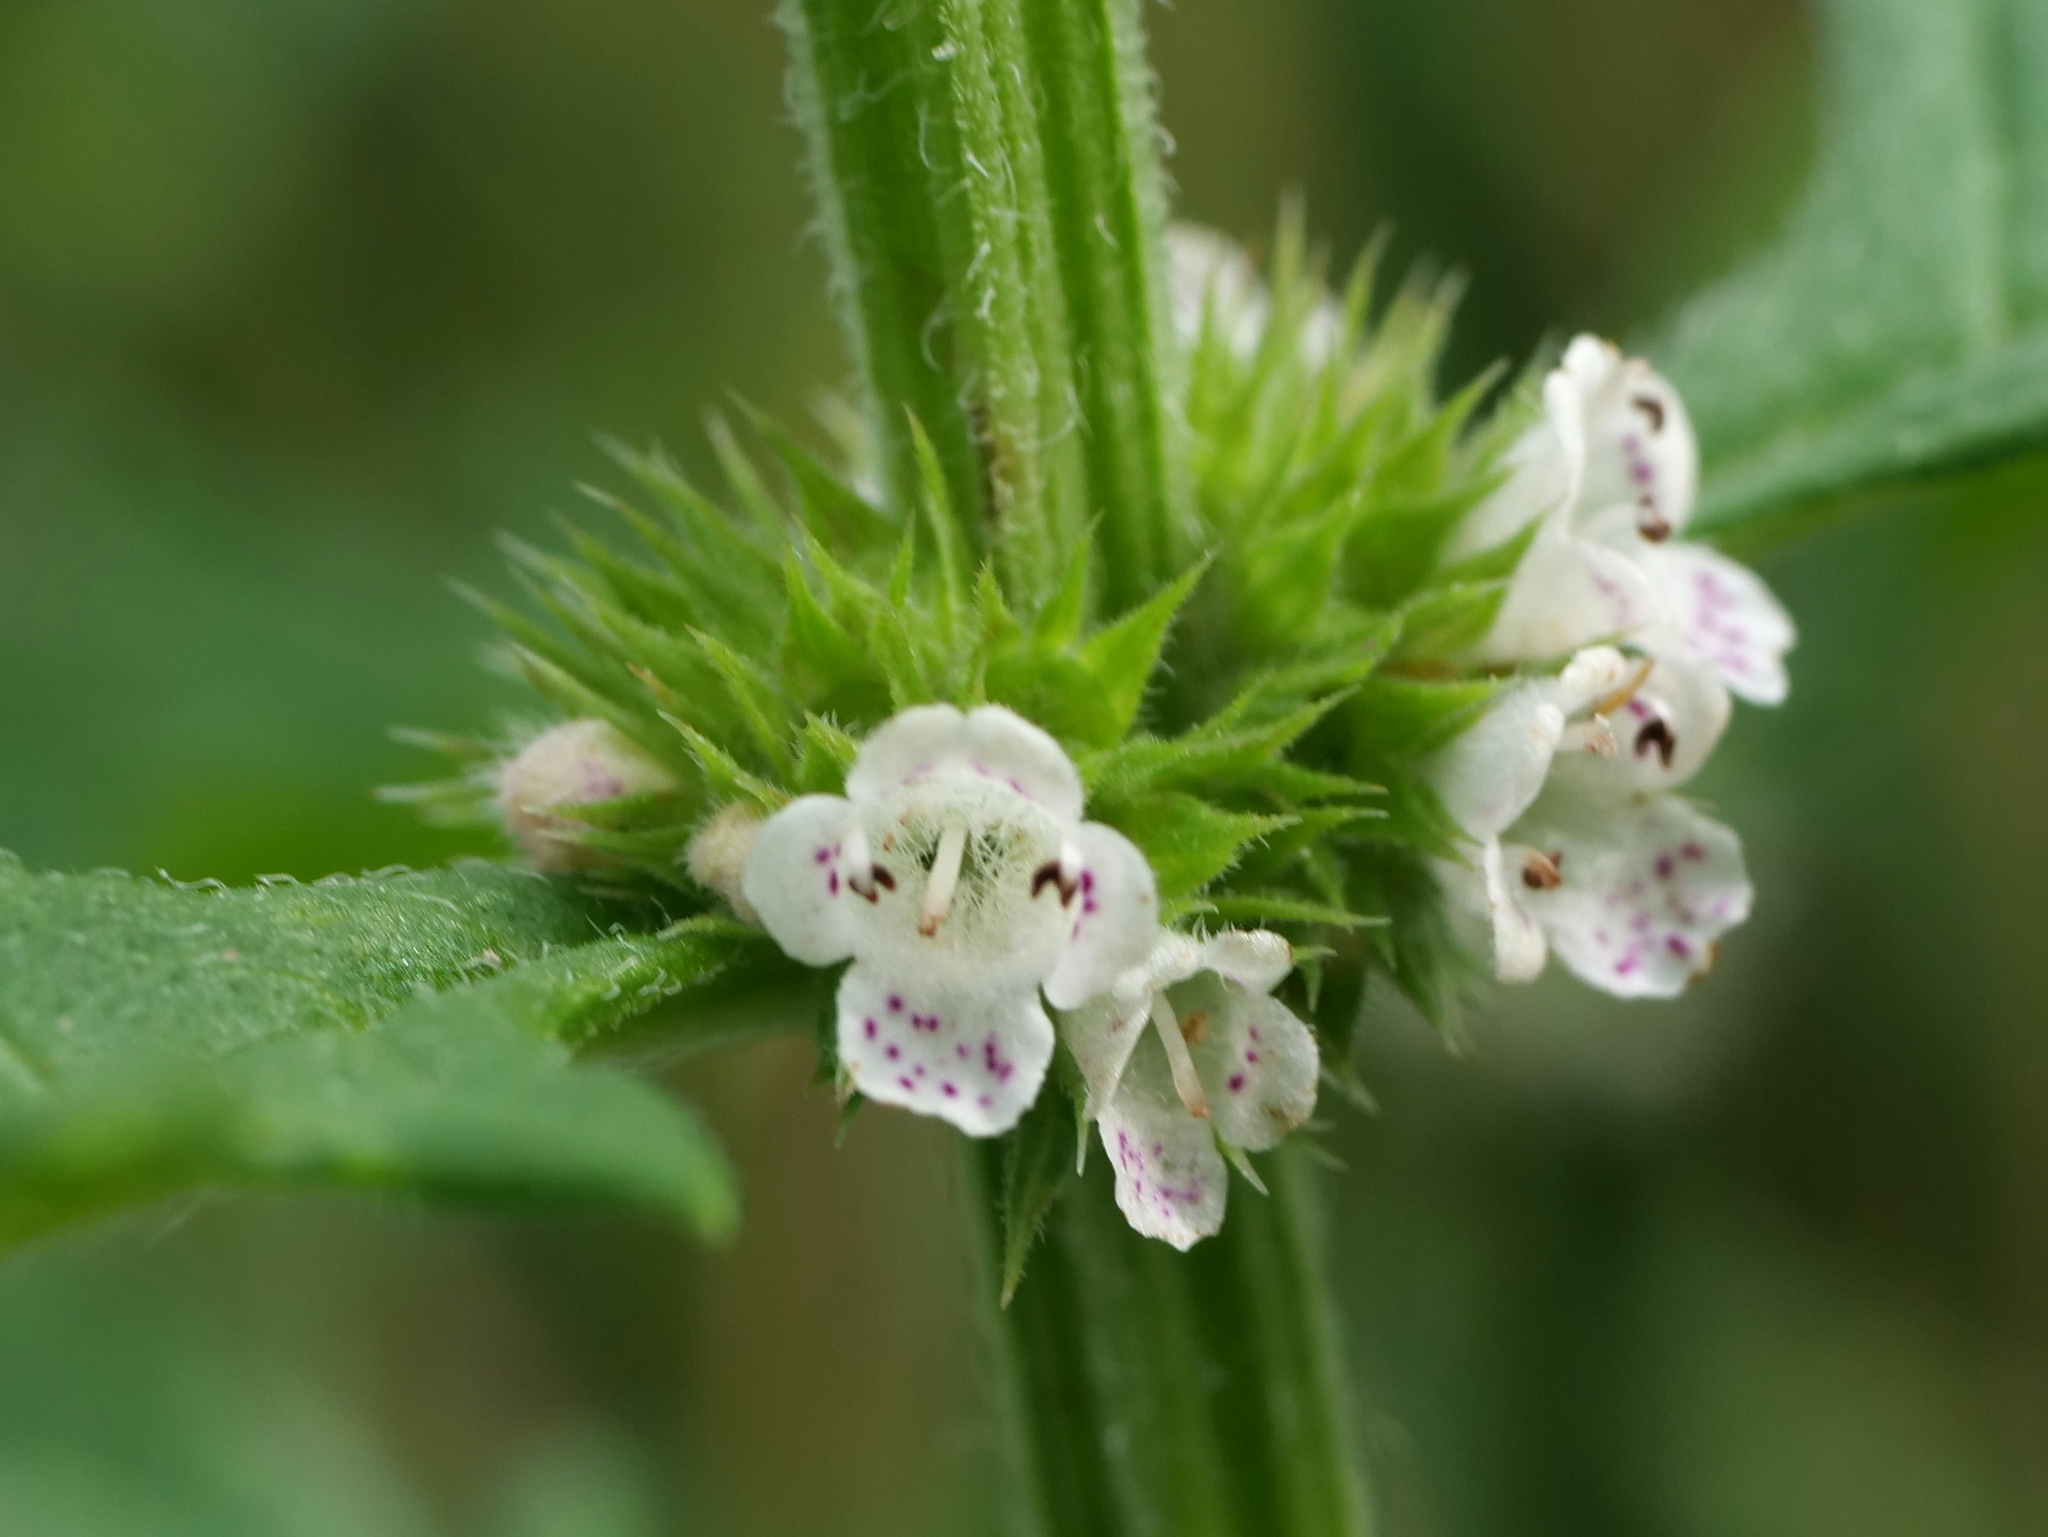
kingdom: Plantae
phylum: Tracheophyta
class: Magnoliopsida
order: Lamiales
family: Lamiaceae
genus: Lycopus
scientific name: Lycopus europaeus
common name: European bugleweed
